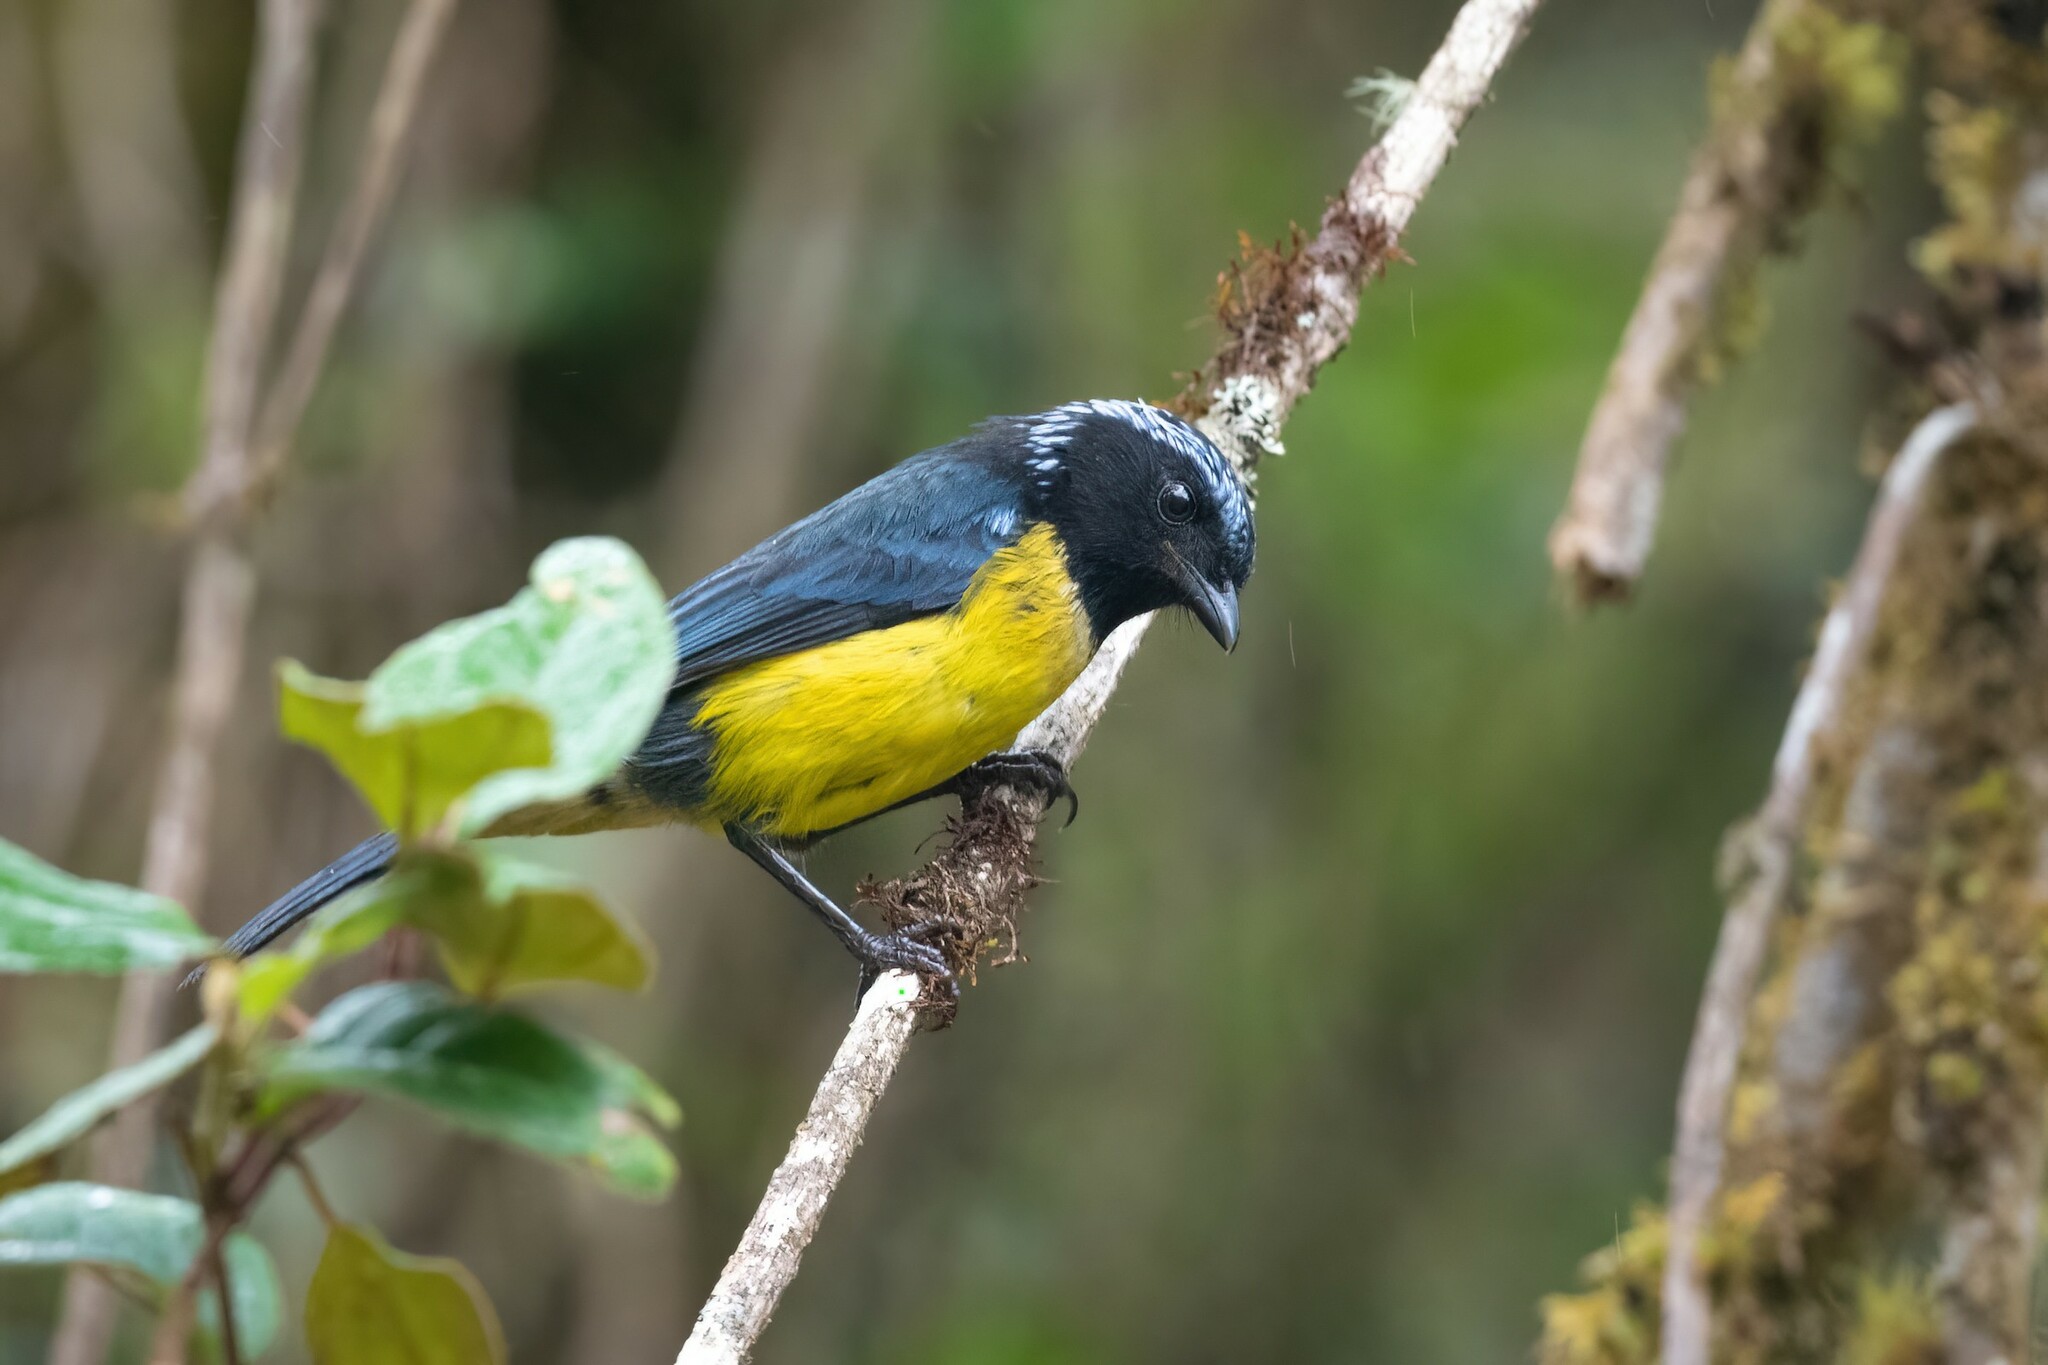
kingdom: Animalia
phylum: Chordata
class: Aves
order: Passeriformes
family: Thraupidae
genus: Dubusia
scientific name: Dubusia taeniata
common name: Buff-breasted mountain tanager
